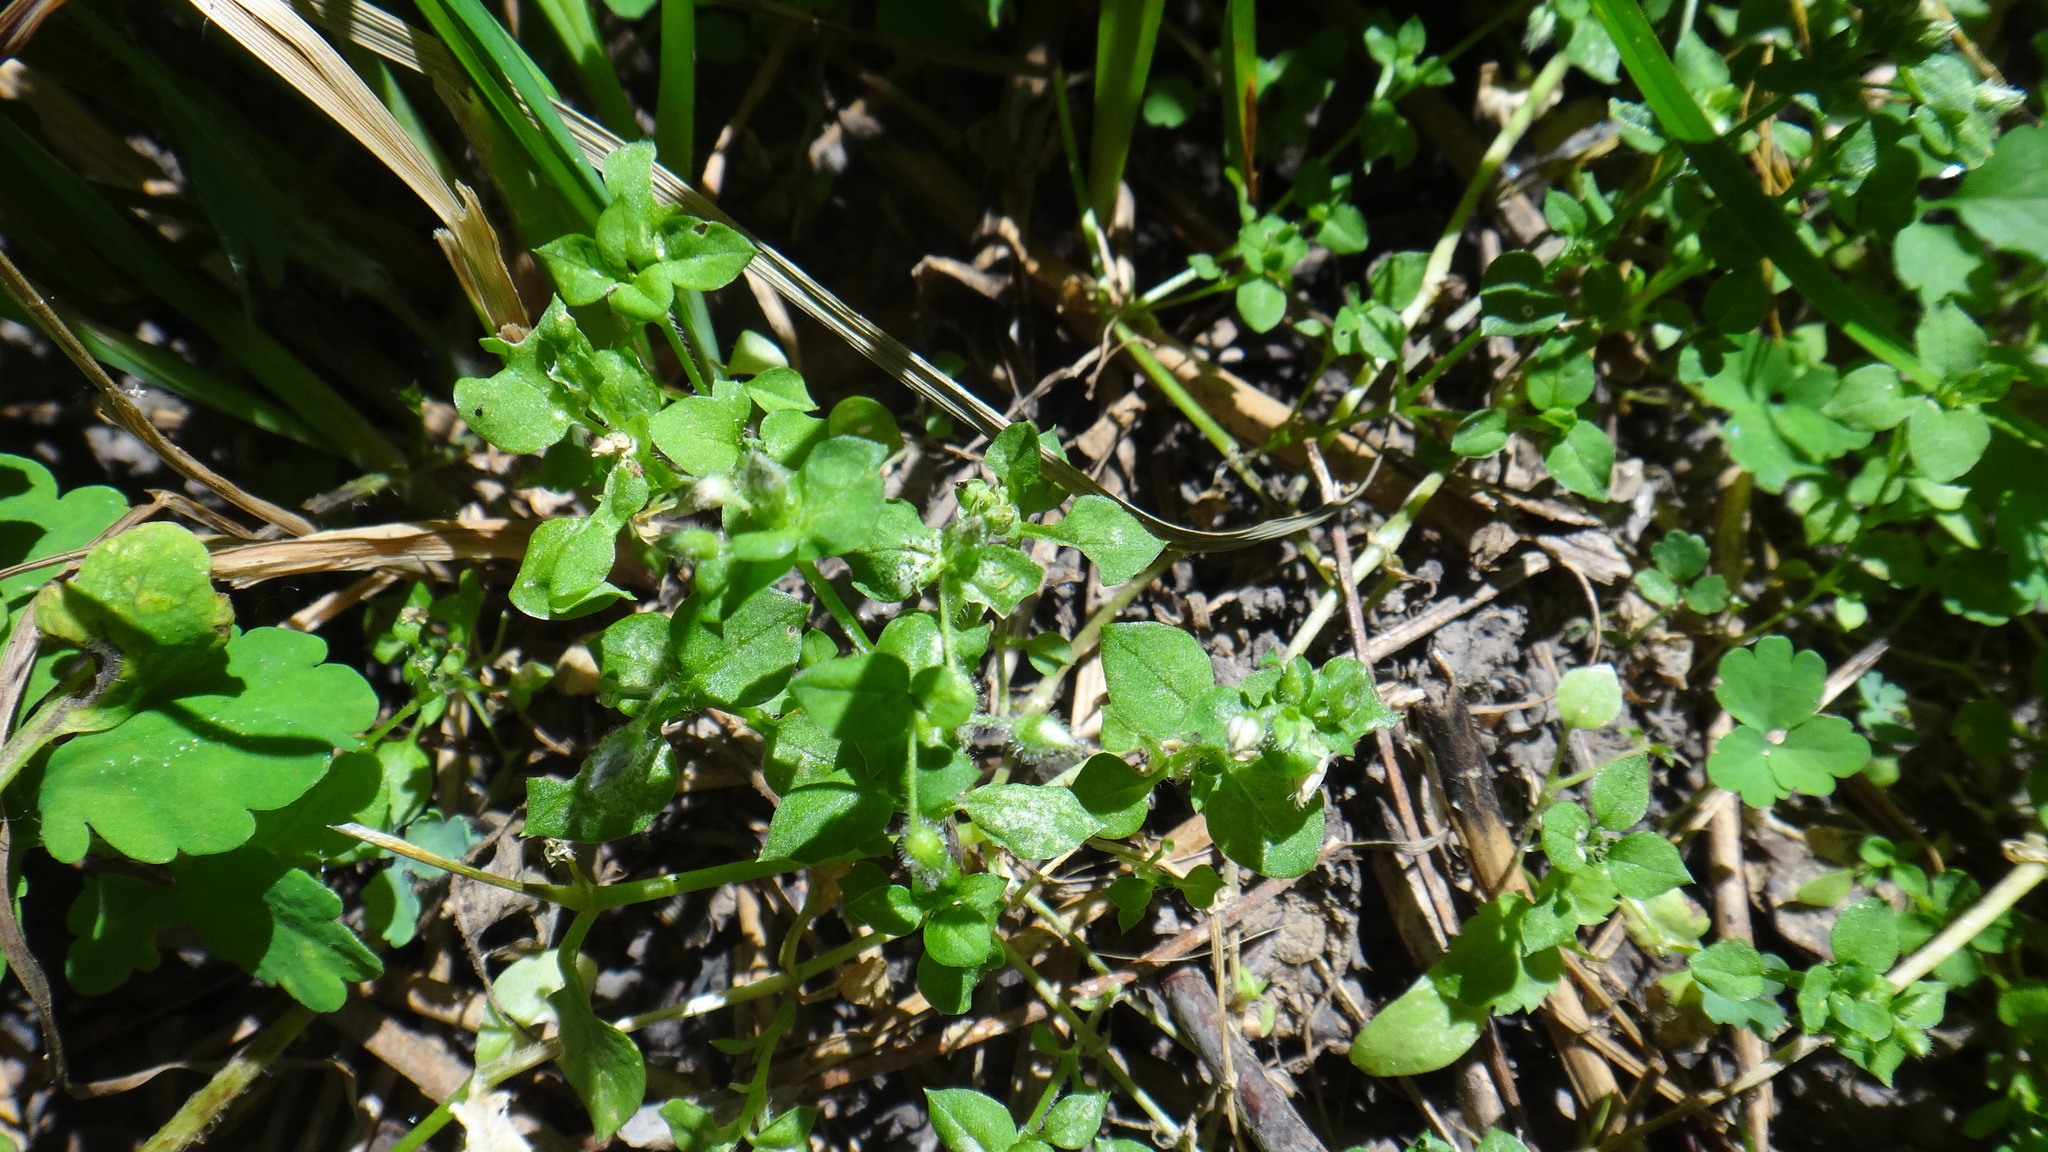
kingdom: Plantae
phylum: Tracheophyta
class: Magnoliopsida
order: Caryophyllales
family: Caryophyllaceae
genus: Stellaria
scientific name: Stellaria media
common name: Common chickweed
